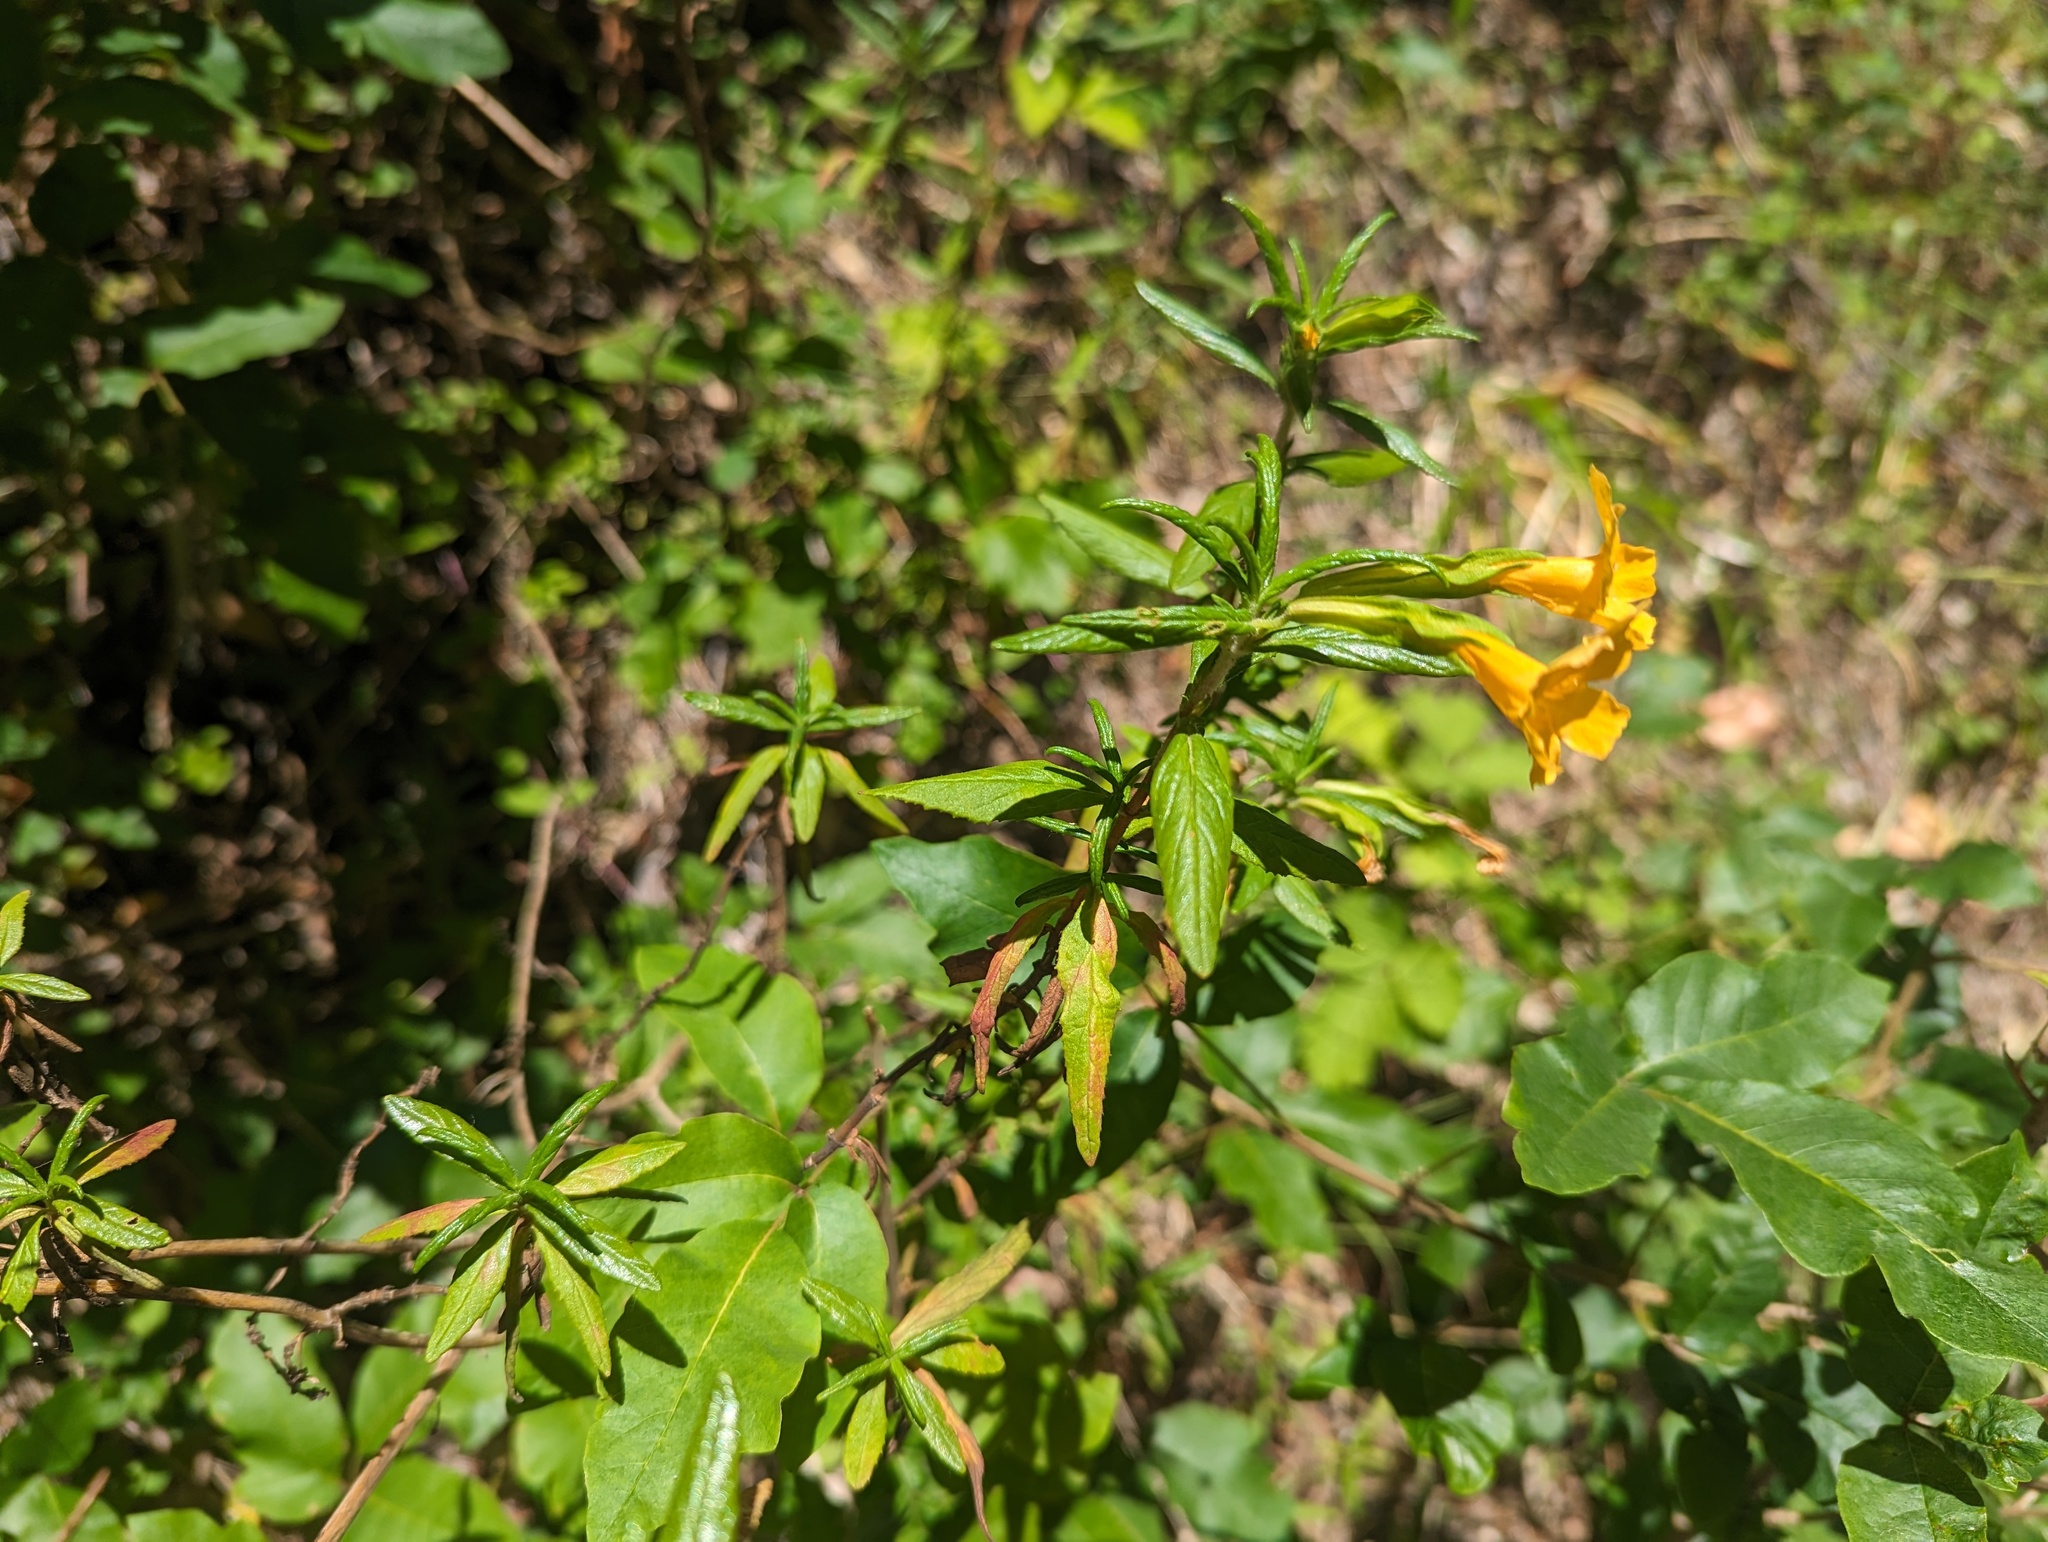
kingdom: Plantae
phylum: Tracheophyta
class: Magnoliopsida
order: Lamiales
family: Phrymaceae
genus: Diplacus
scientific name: Diplacus aurantiacus
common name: Bush monkey-flower
